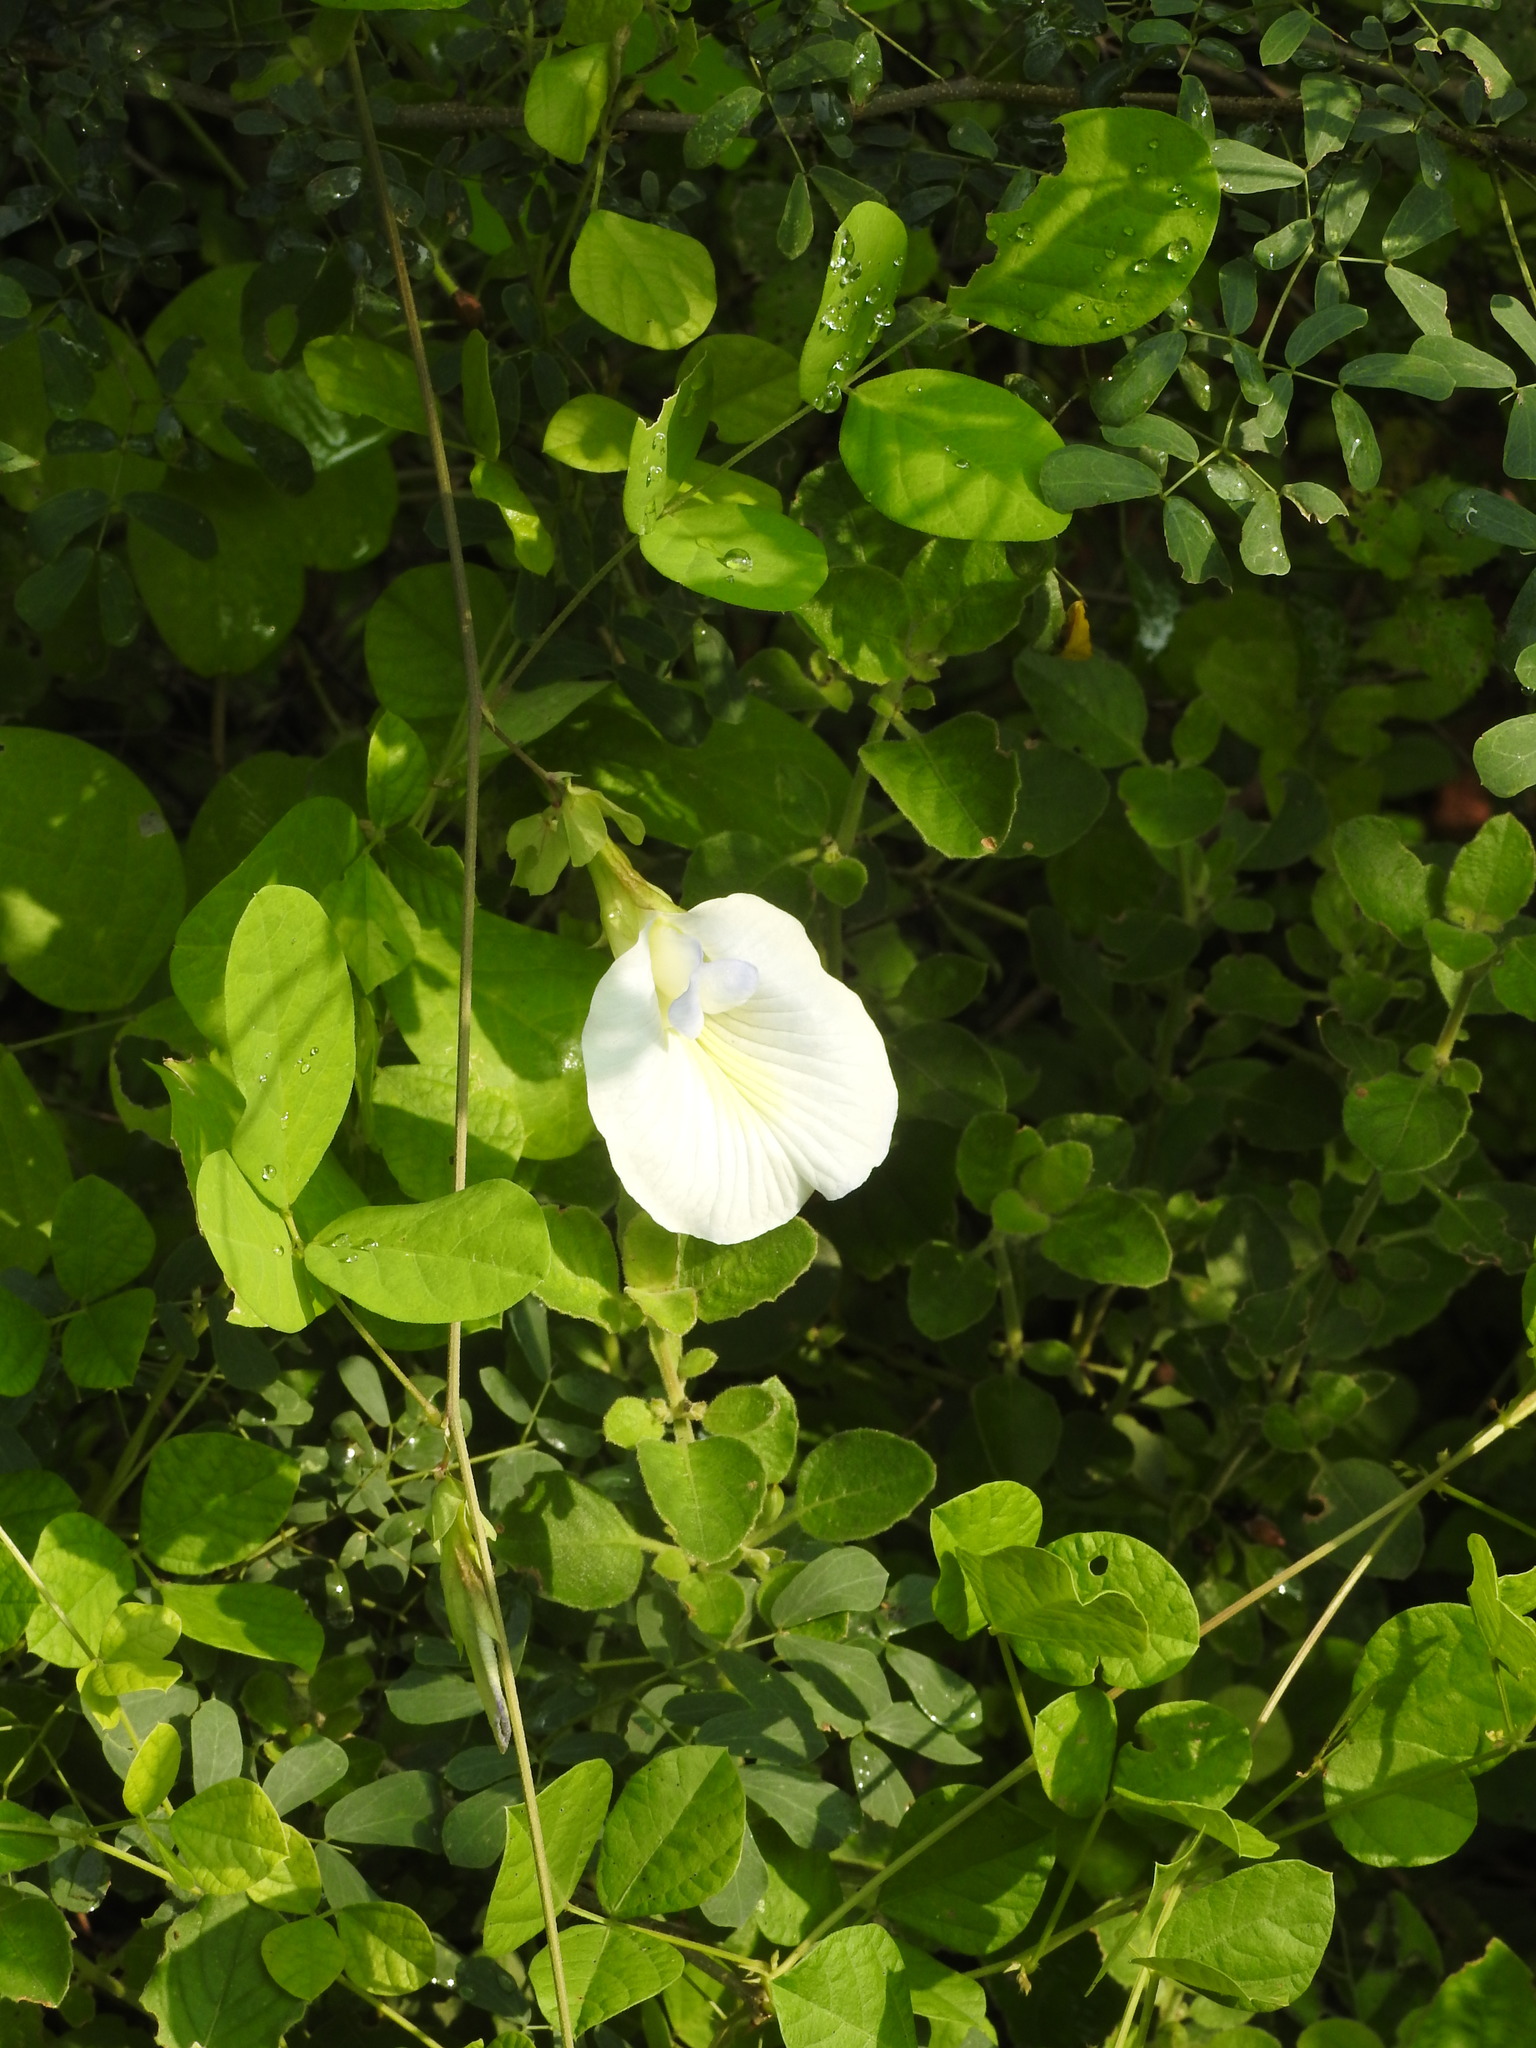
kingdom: Plantae
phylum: Tracheophyta
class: Magnoliopsida
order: Fabales
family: Fabaceae
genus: Clitoria
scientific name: Clitoria ternatea
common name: Asian pigeonwings
